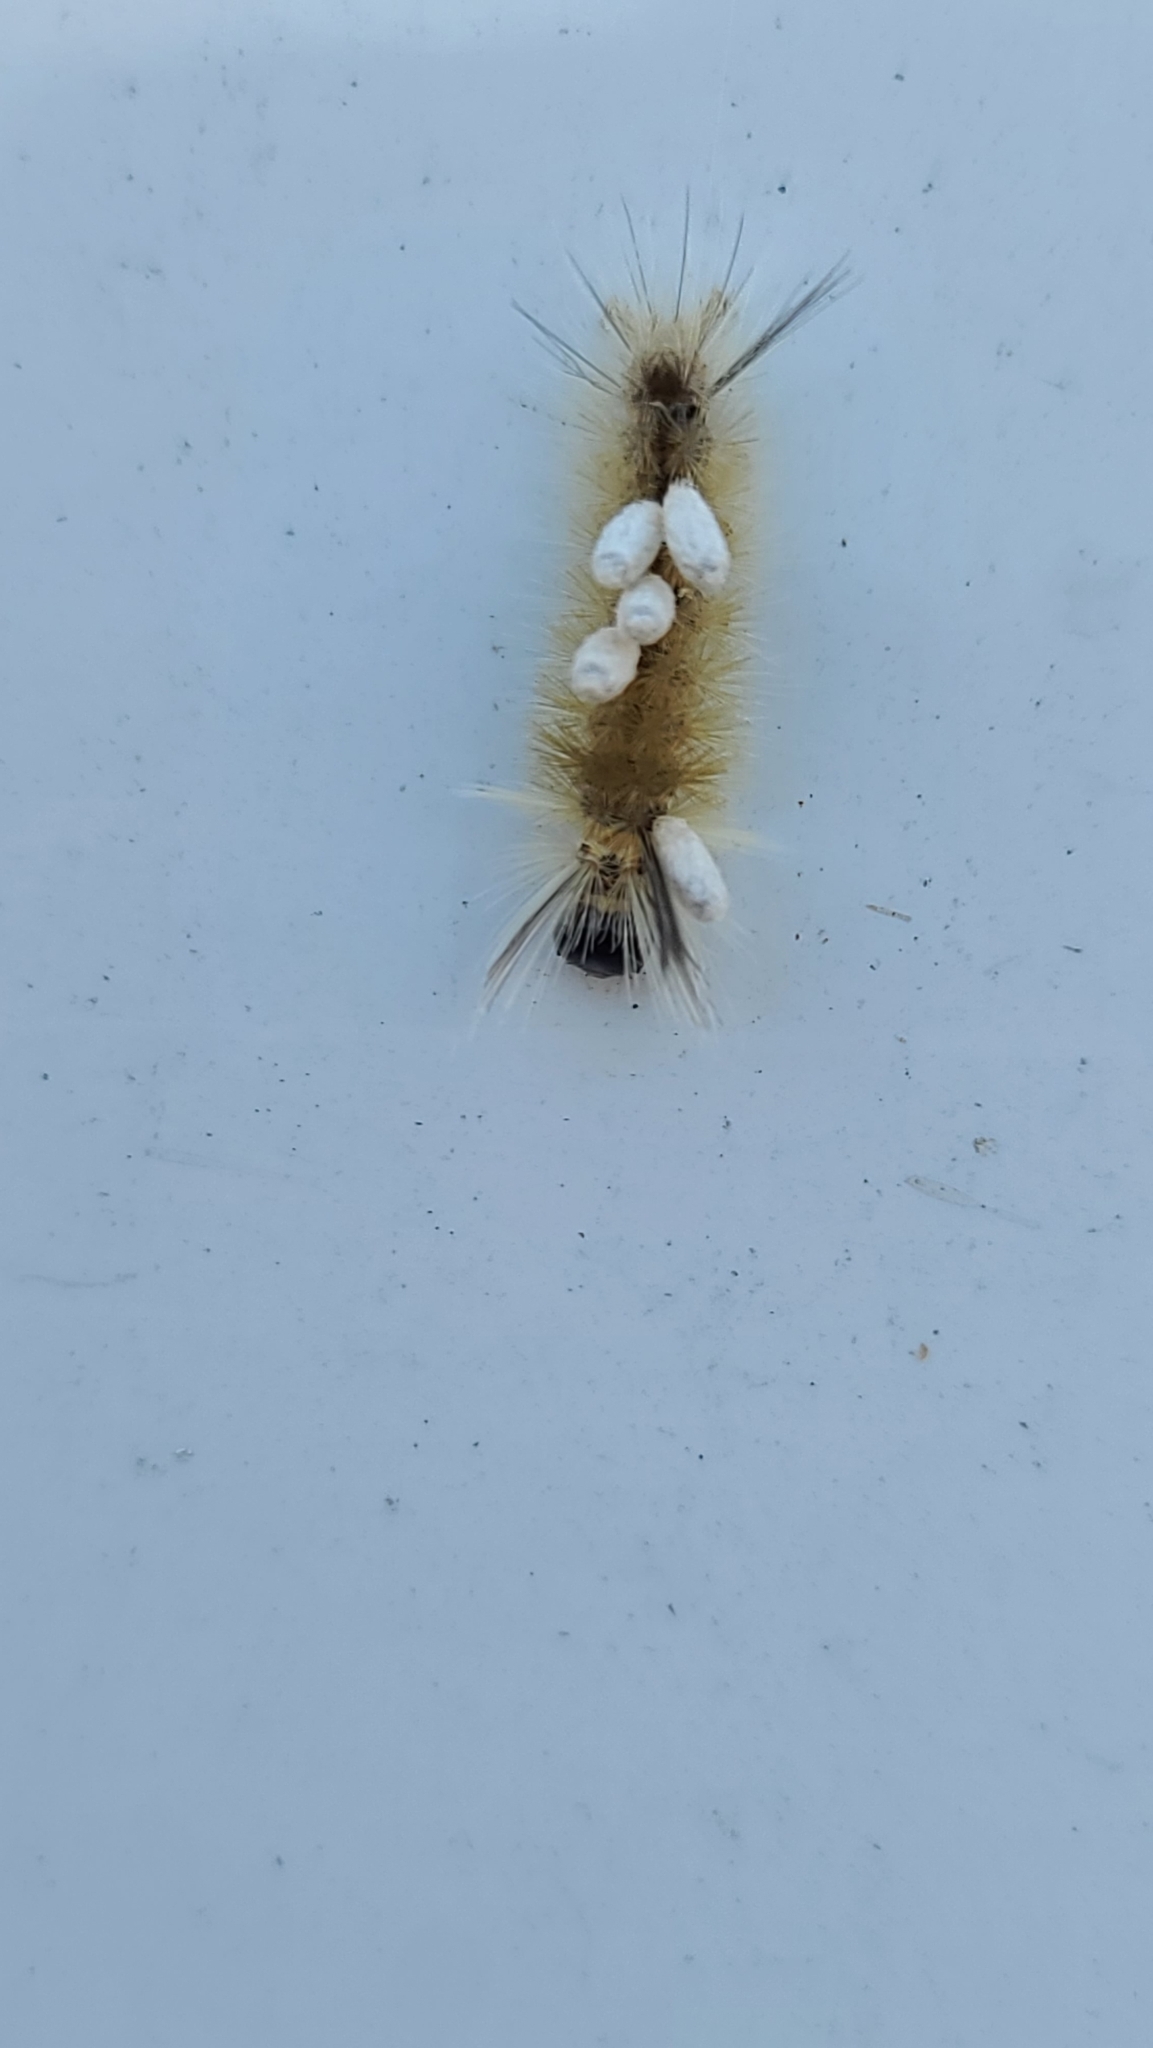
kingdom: Animalia
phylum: Arthropoda
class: Insecta
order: Lepidoptera
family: Erebidae
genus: Halysidota
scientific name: Halysidota tessellaris
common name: Banded tussock moth
